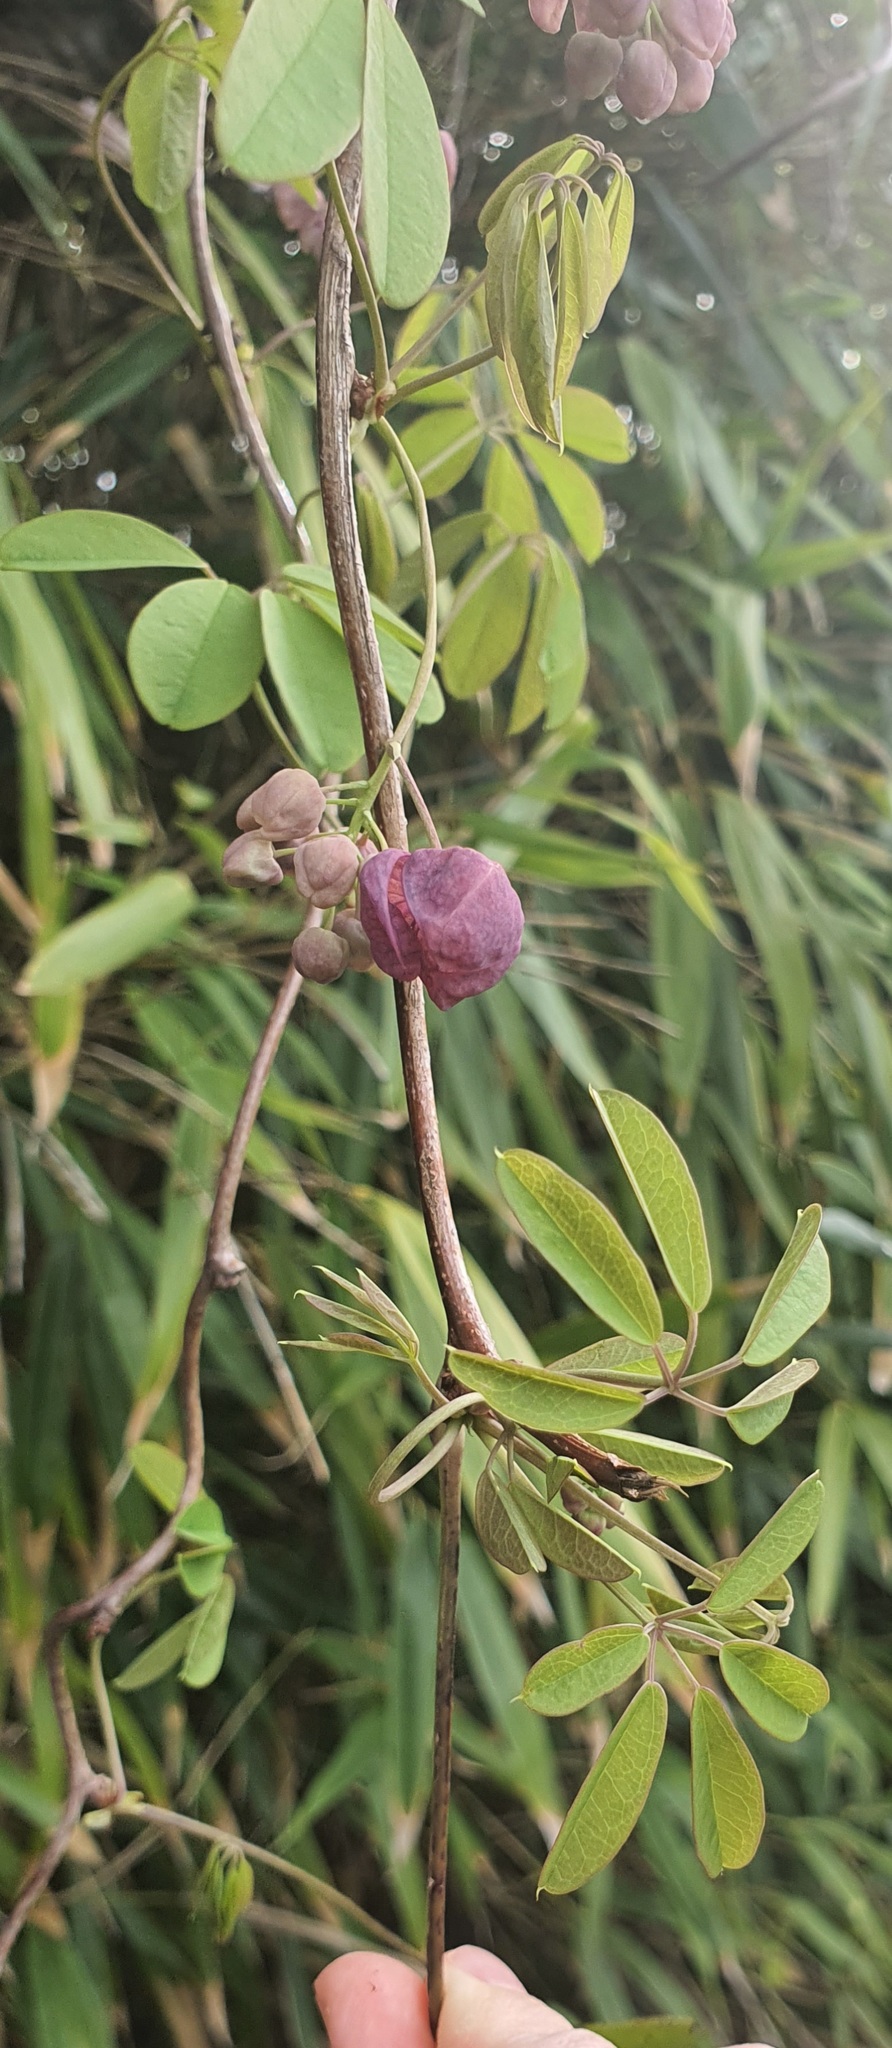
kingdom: Plantae
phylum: Tracheophyta
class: Magnoliopsida
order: Ranunculales
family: Lardizabalaceae
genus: Akebia
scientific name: Akebia quinata
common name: Five-leaf akebia
